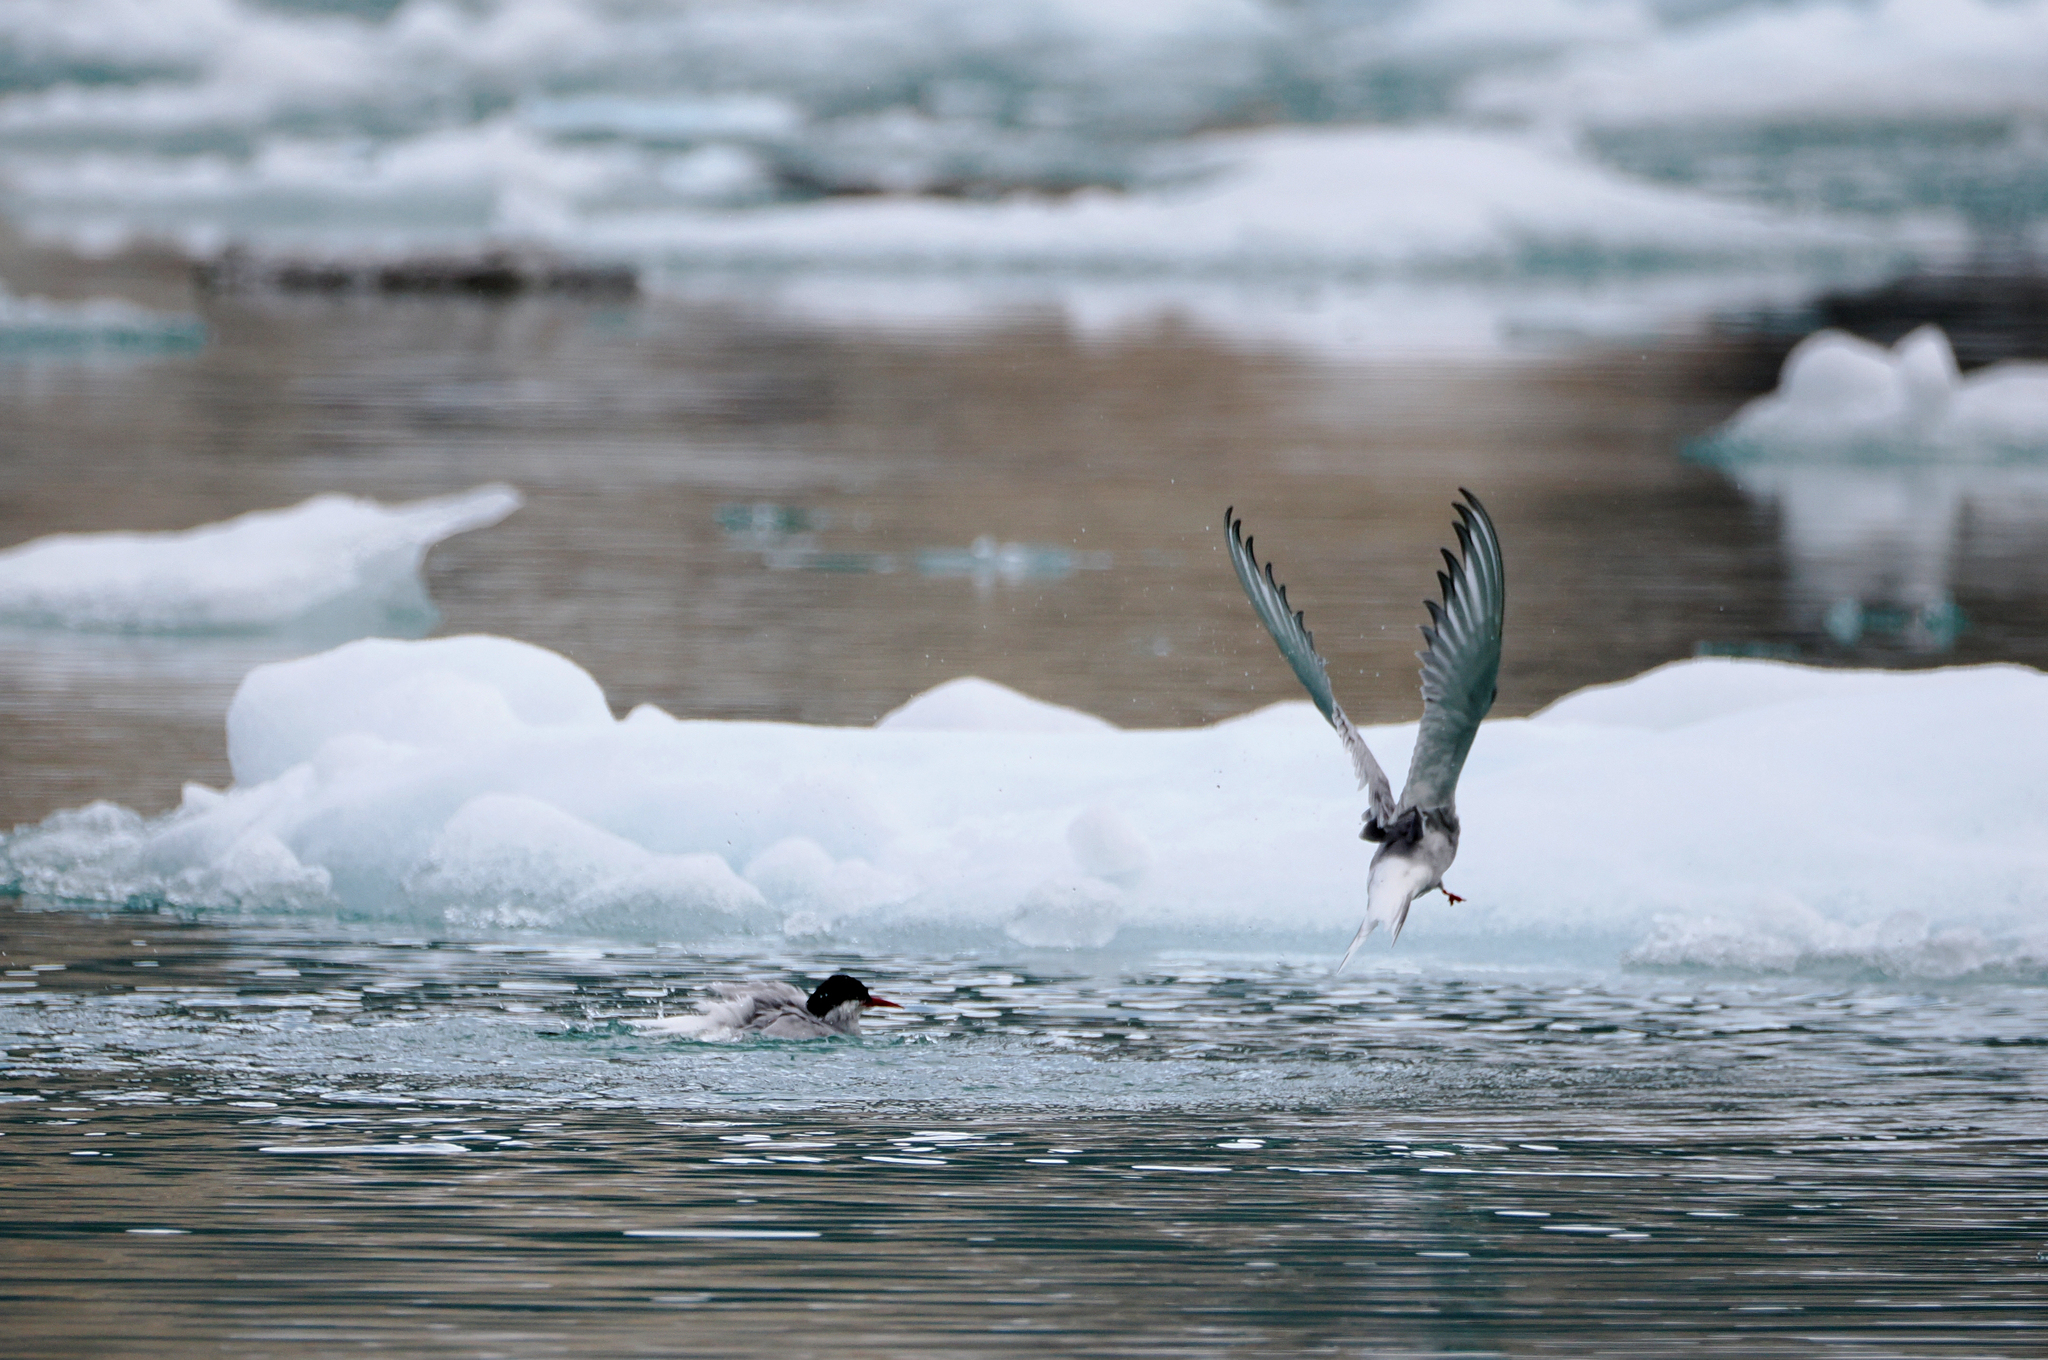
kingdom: Animalia
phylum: Chordata
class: Aves
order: Charadriiformes
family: Laridae
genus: Sterna
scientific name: Sterna paradisaea
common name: Arctic tern
